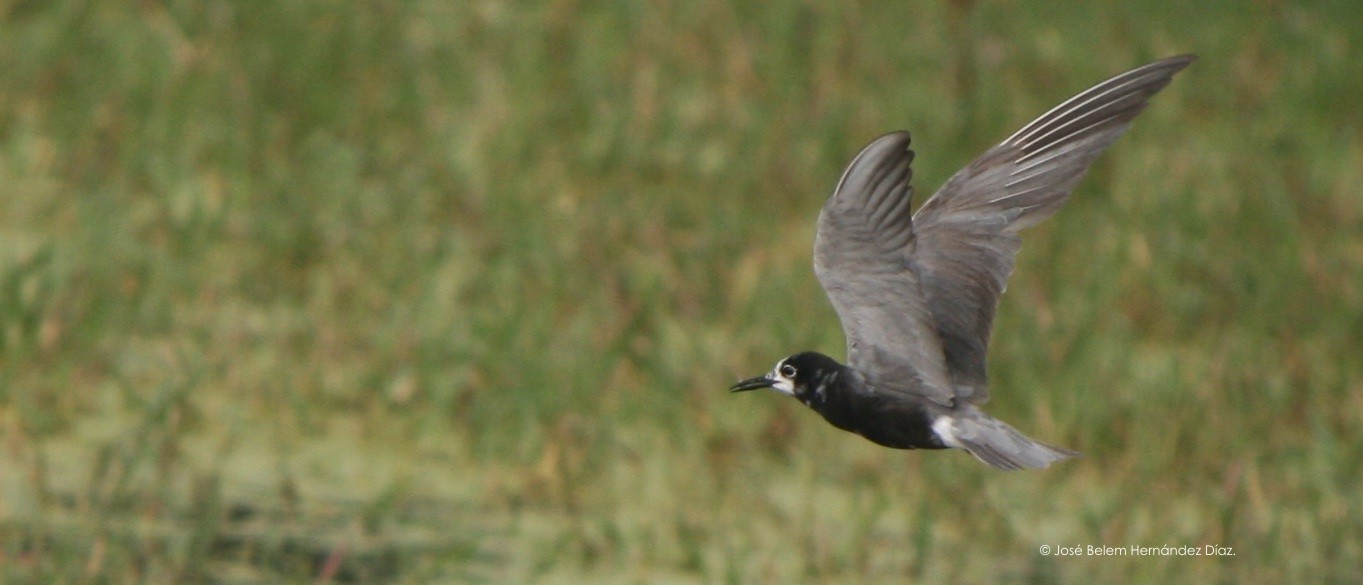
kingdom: Animalia
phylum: Chordata
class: Aves
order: Charadriiformes
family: Laridae
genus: Chlidonias
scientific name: Chlidonias niger
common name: Black tern
